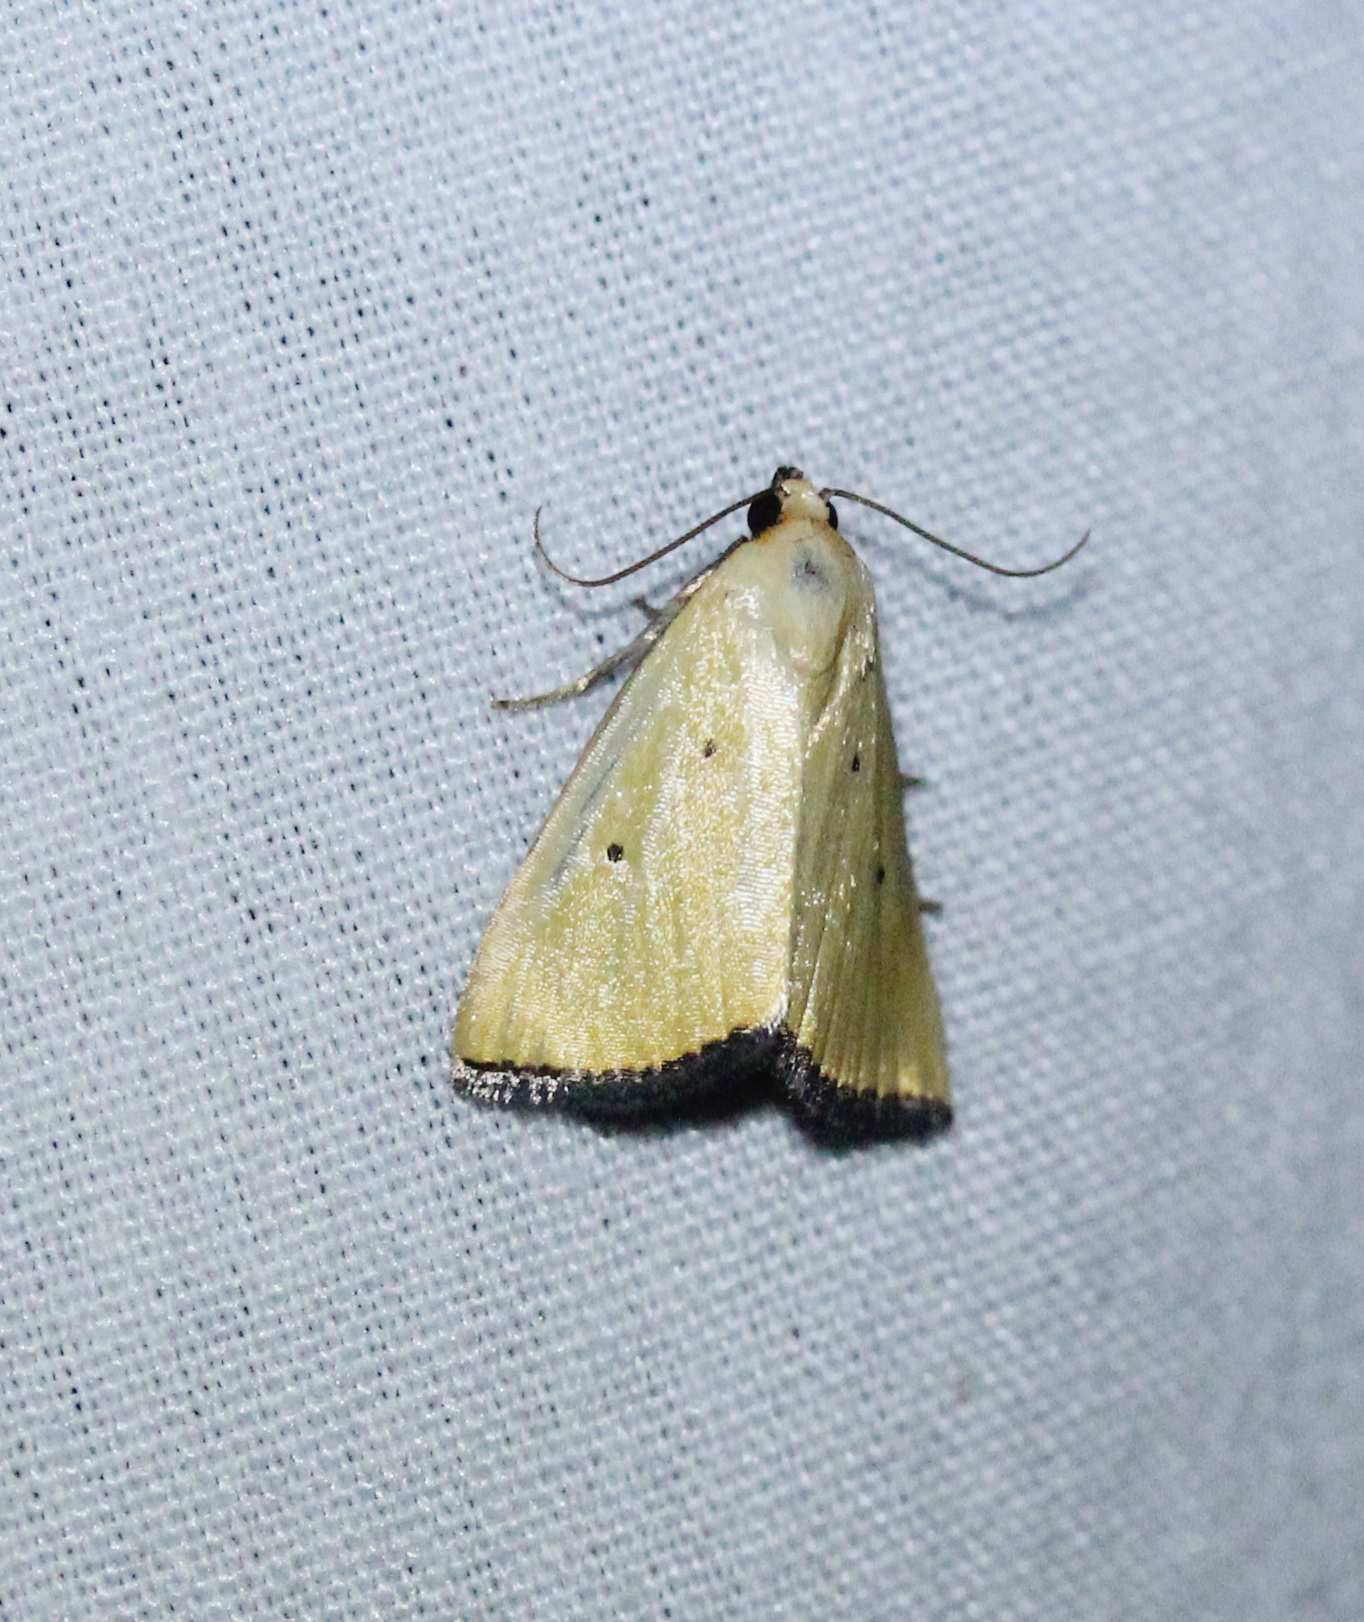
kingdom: Animalia
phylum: Arthropoda
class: Insecta
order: Lepidoptera
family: Noctuidae
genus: Marimatha
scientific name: Marimatha nigrofimbria
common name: Black-bordered lemon moth
